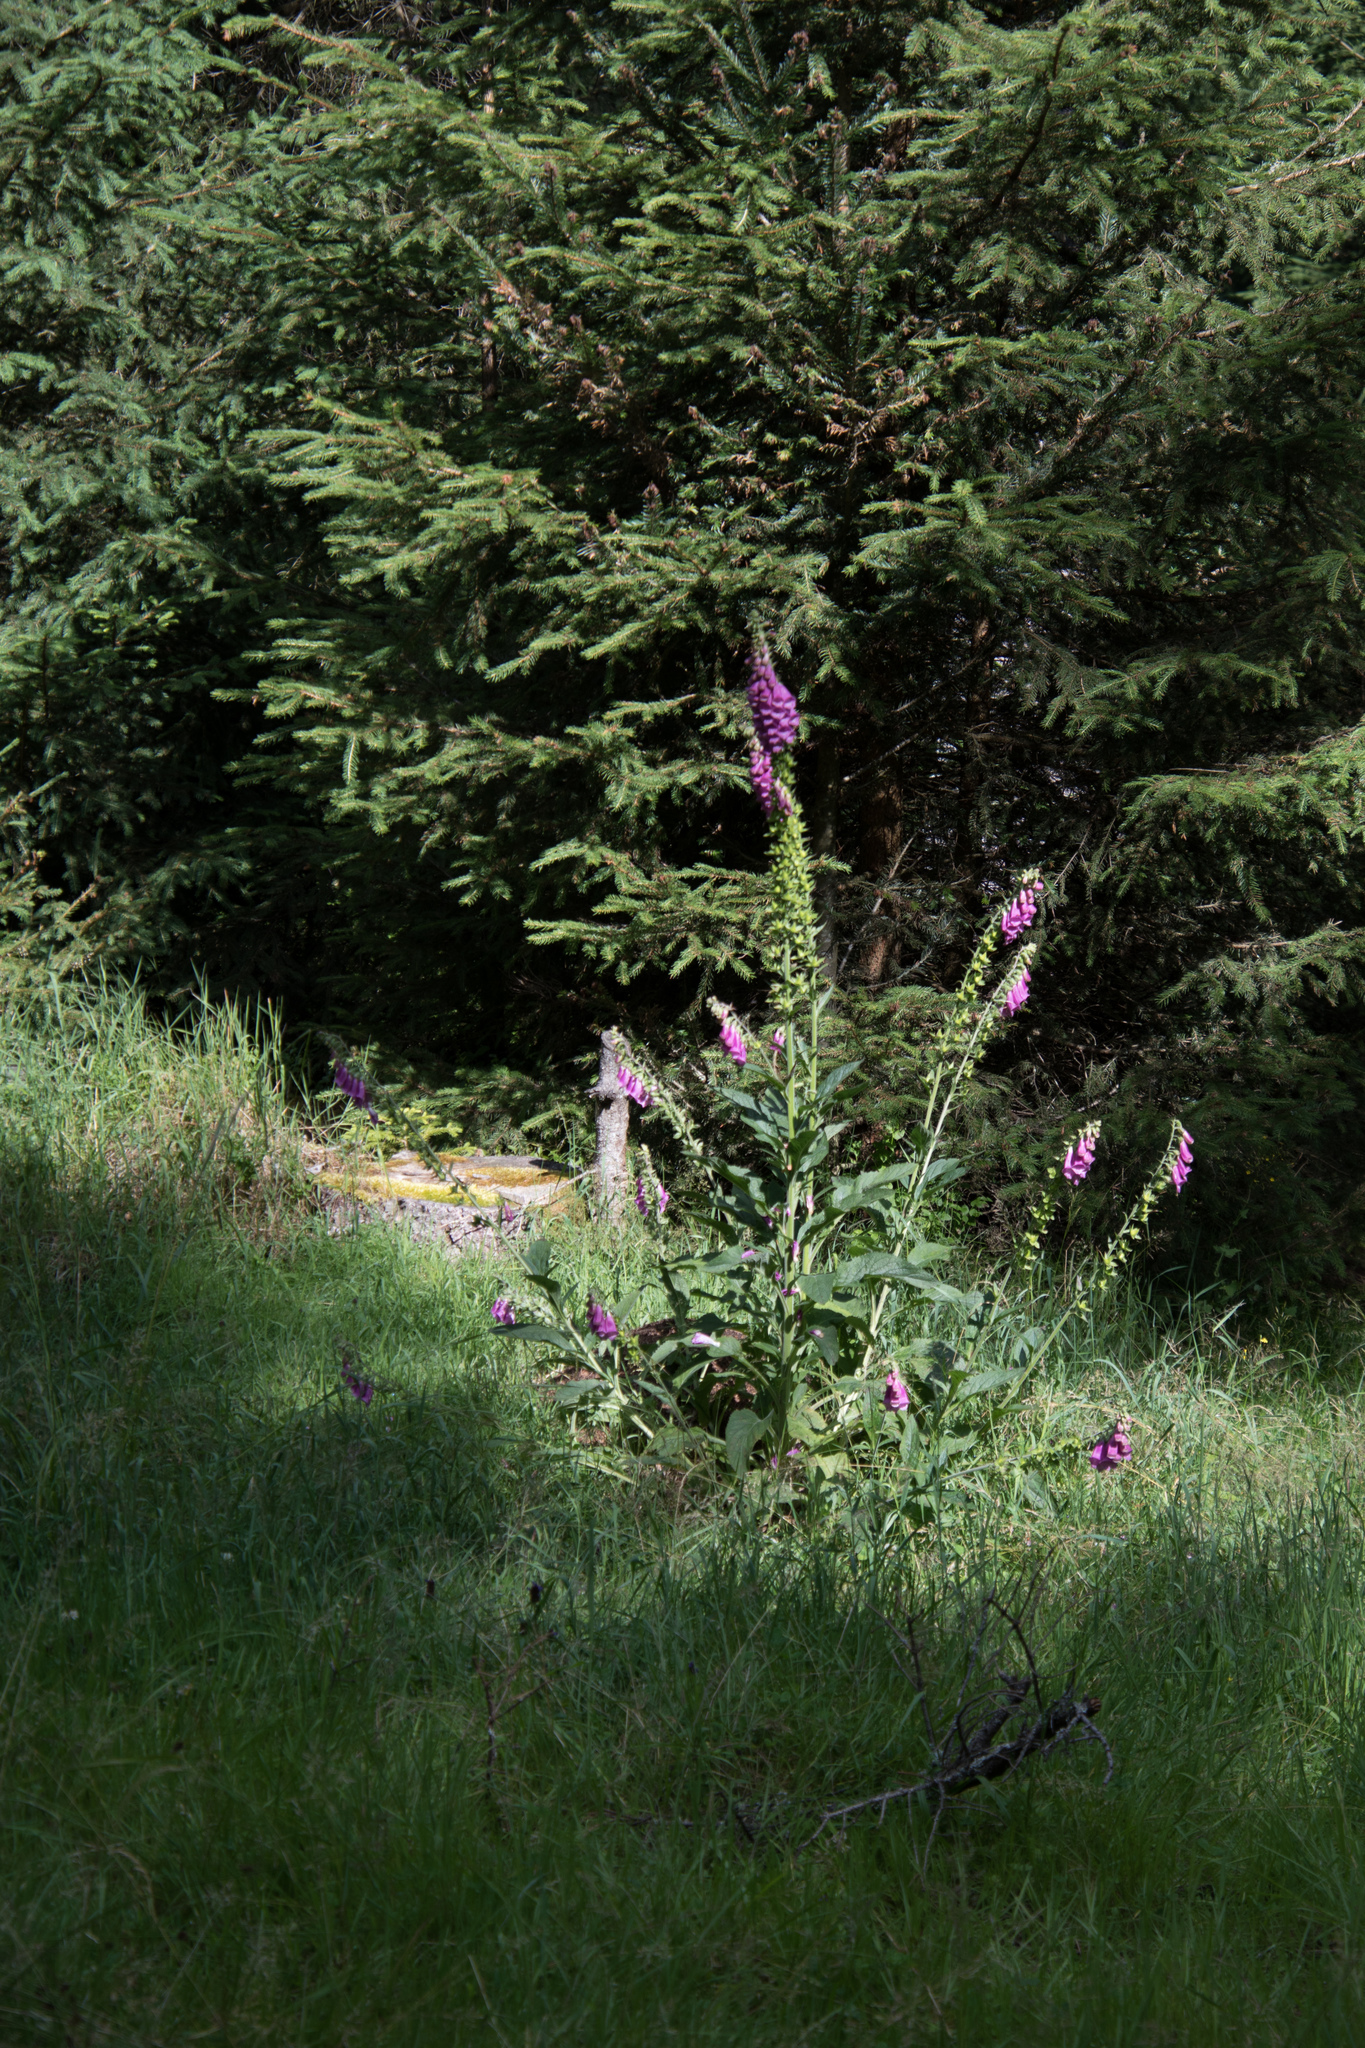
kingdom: Plantae
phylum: Tracheophyta
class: Magnoliopsida
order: Lamiales
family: Plantaginaceae
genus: Digitalis
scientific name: Digitalis purpurea
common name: Foxglove
